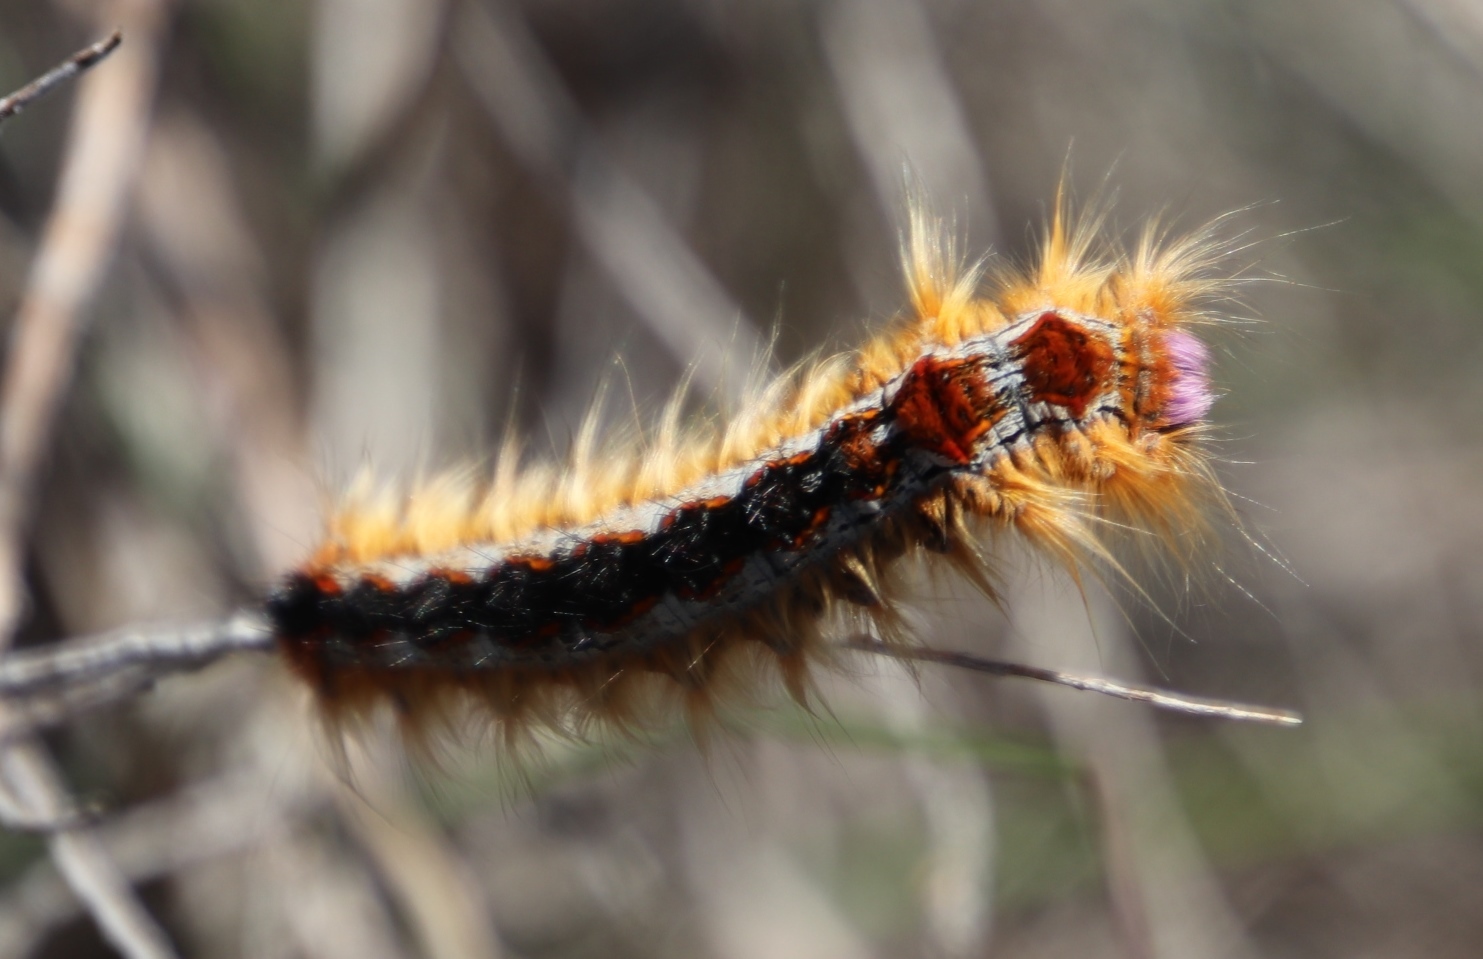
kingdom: Animalia
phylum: Arthropoda
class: Insecta
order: Lepidoptera
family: Lasiocampidae
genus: Eutricha
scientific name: Eutricha capensis
